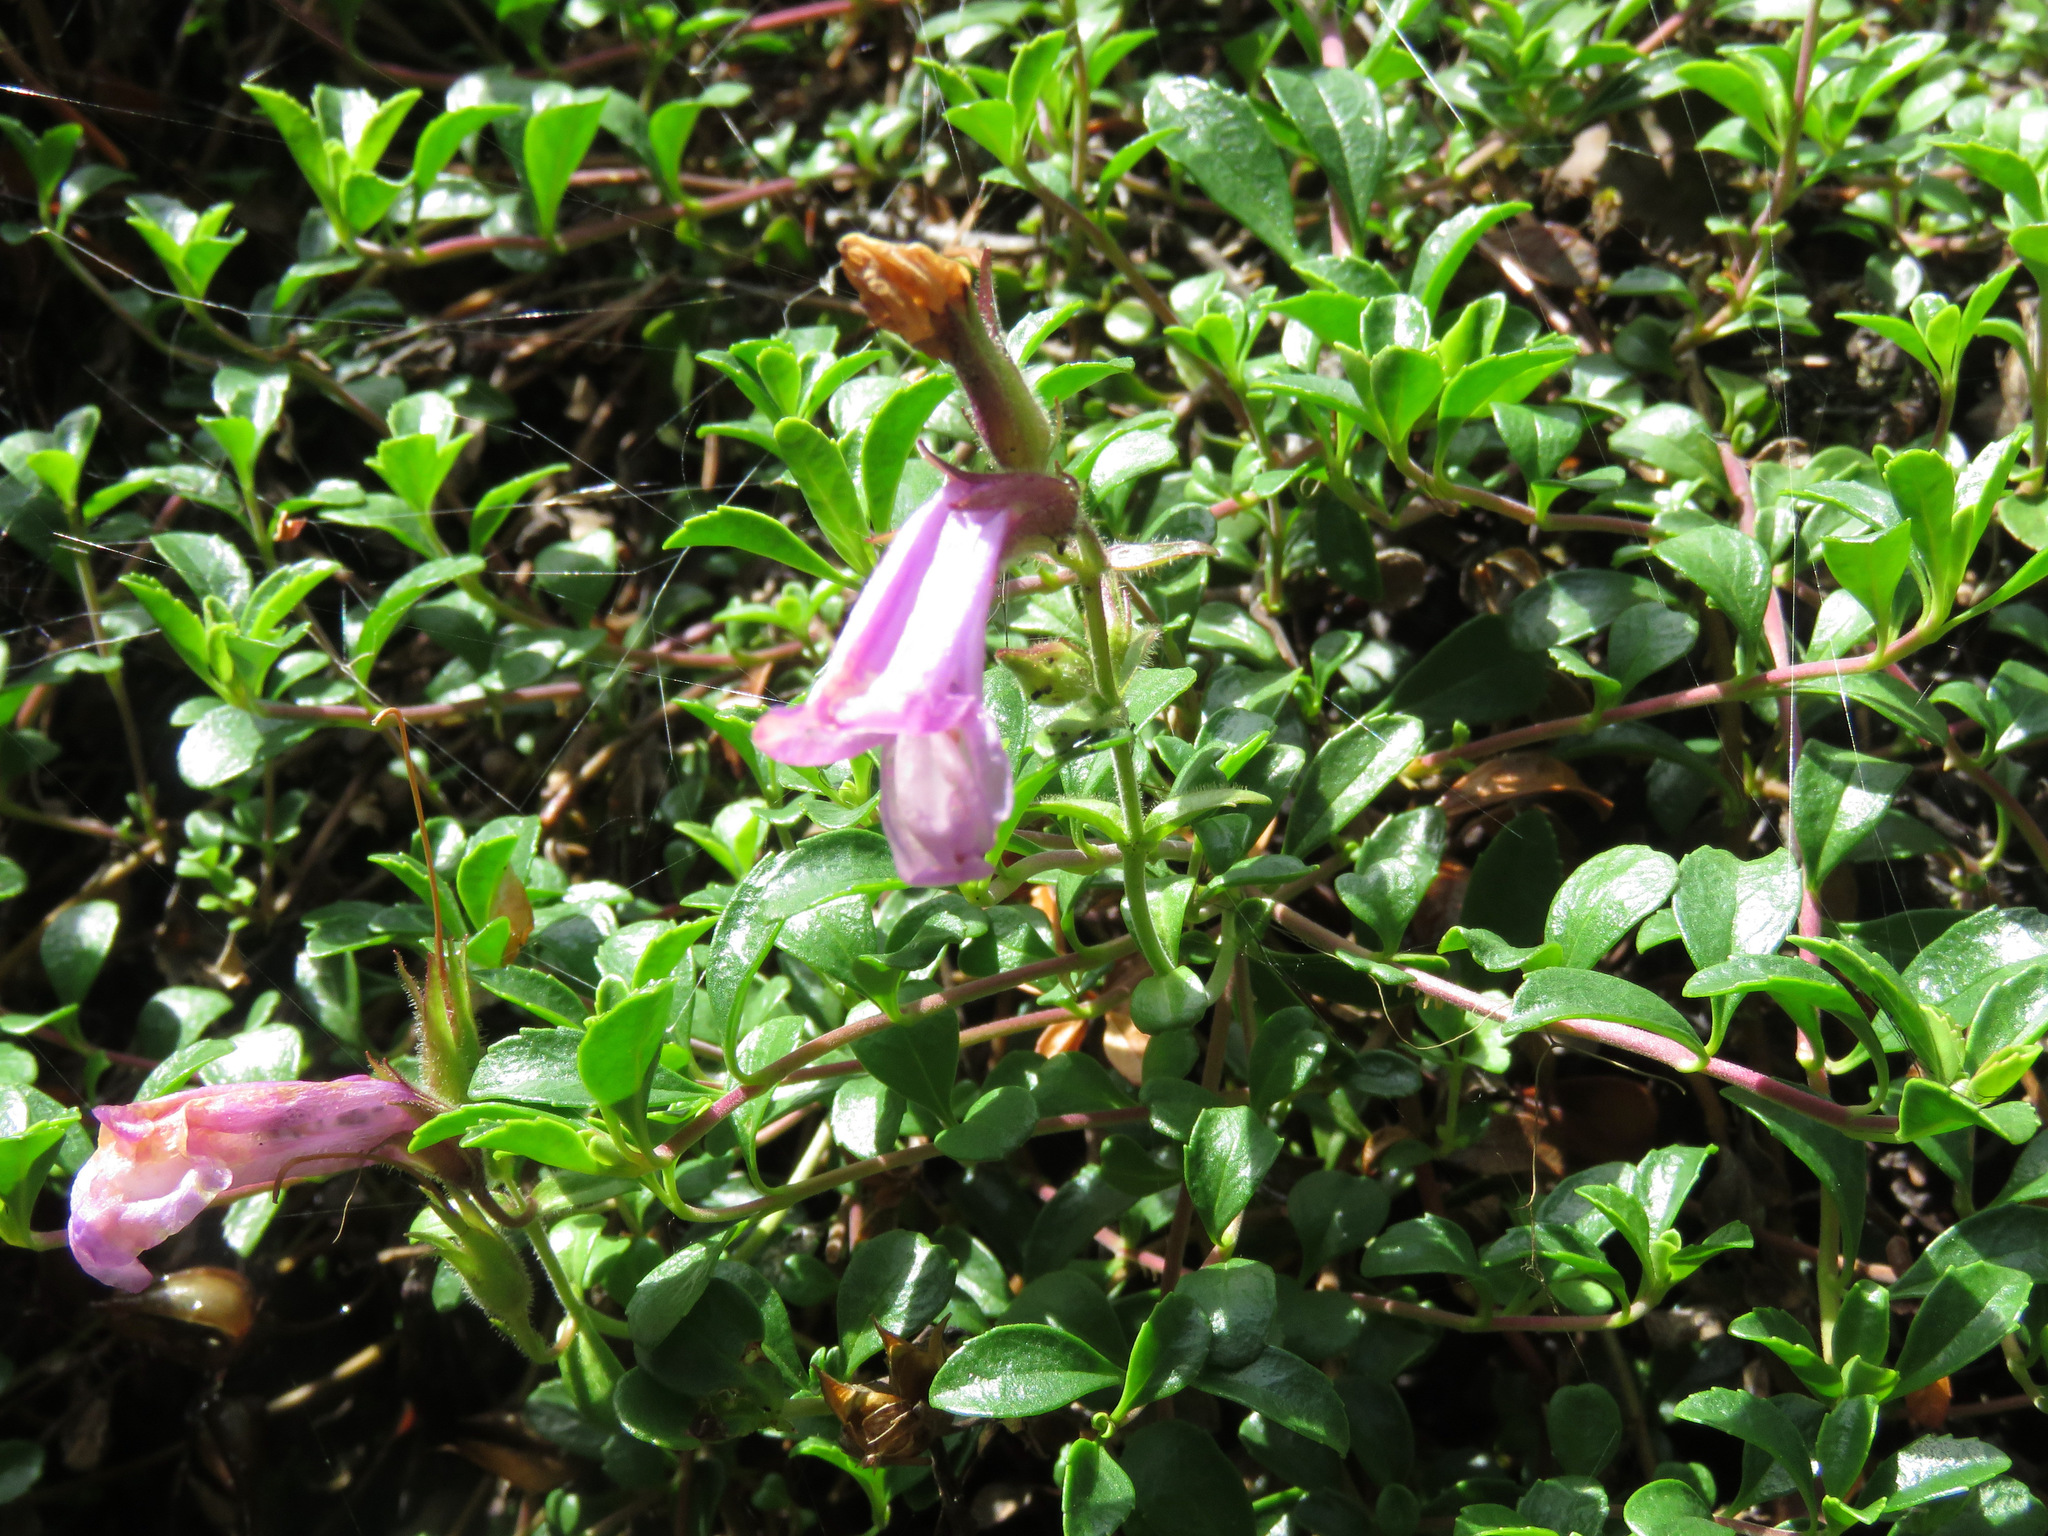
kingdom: Plantae
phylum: Tracheophyta
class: Magnoliopsida
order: Lamiales
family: Plantaginaceae
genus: Penstemon
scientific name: Penstemon davidsonii
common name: Davidson's penstemon
